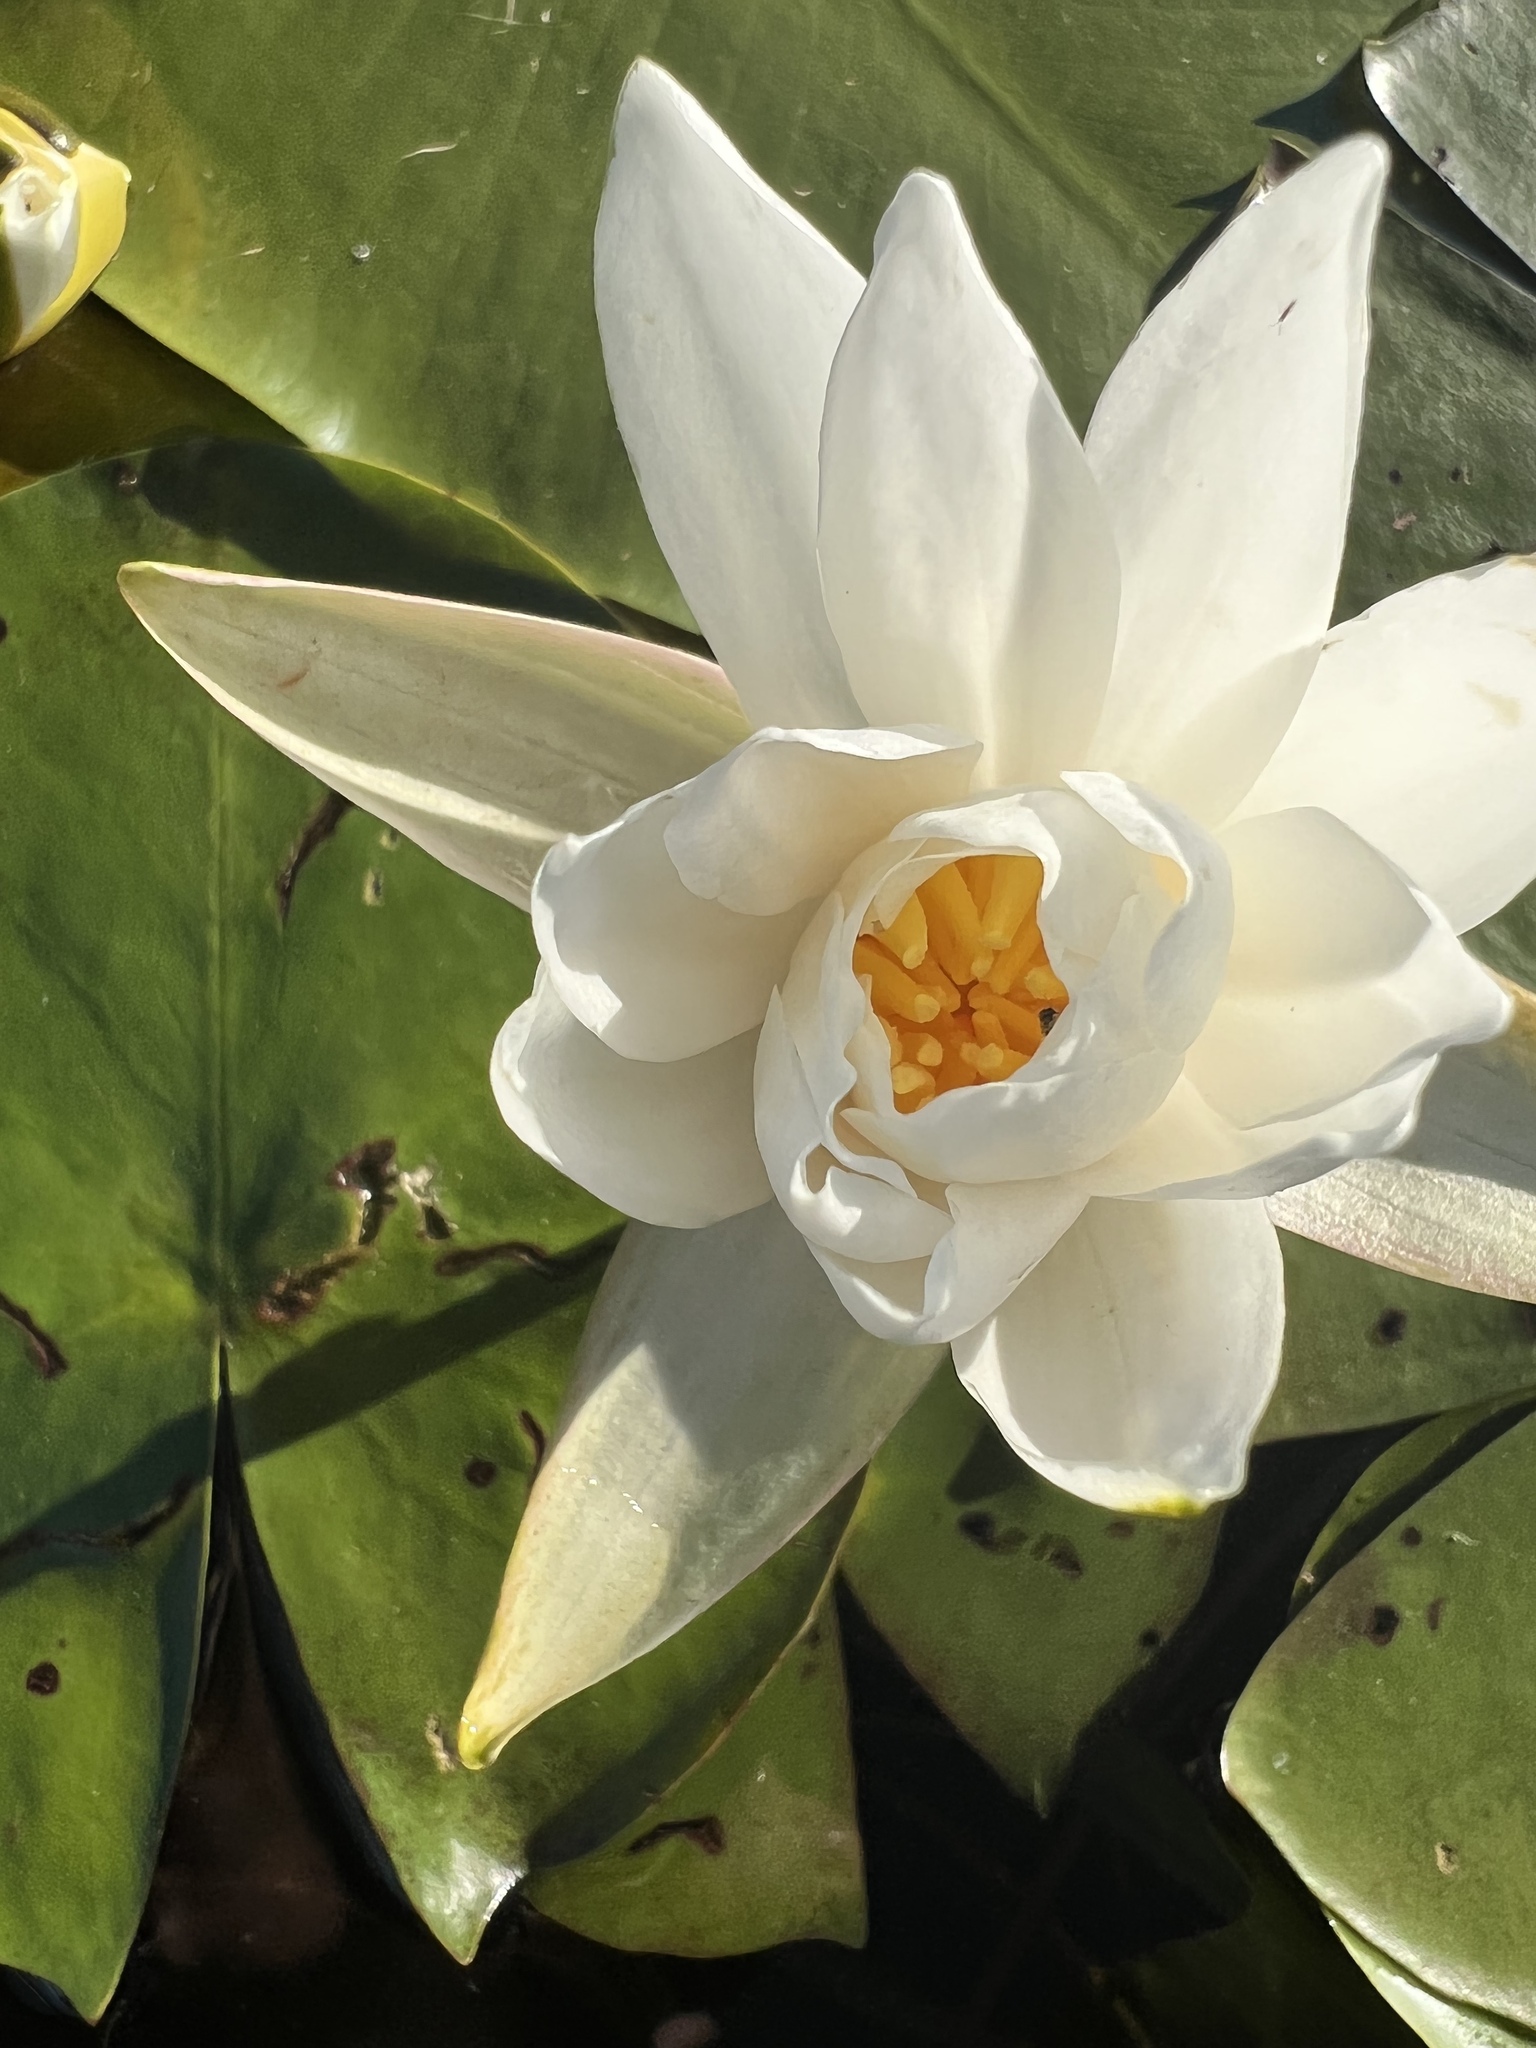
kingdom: Plantae
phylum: Tracheophyta
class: Magnoliopsida
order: Nymphaeales
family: Nymphaeaceae
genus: Nymphaea
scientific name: Nymphaea odorata
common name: Fragrant water-lily
